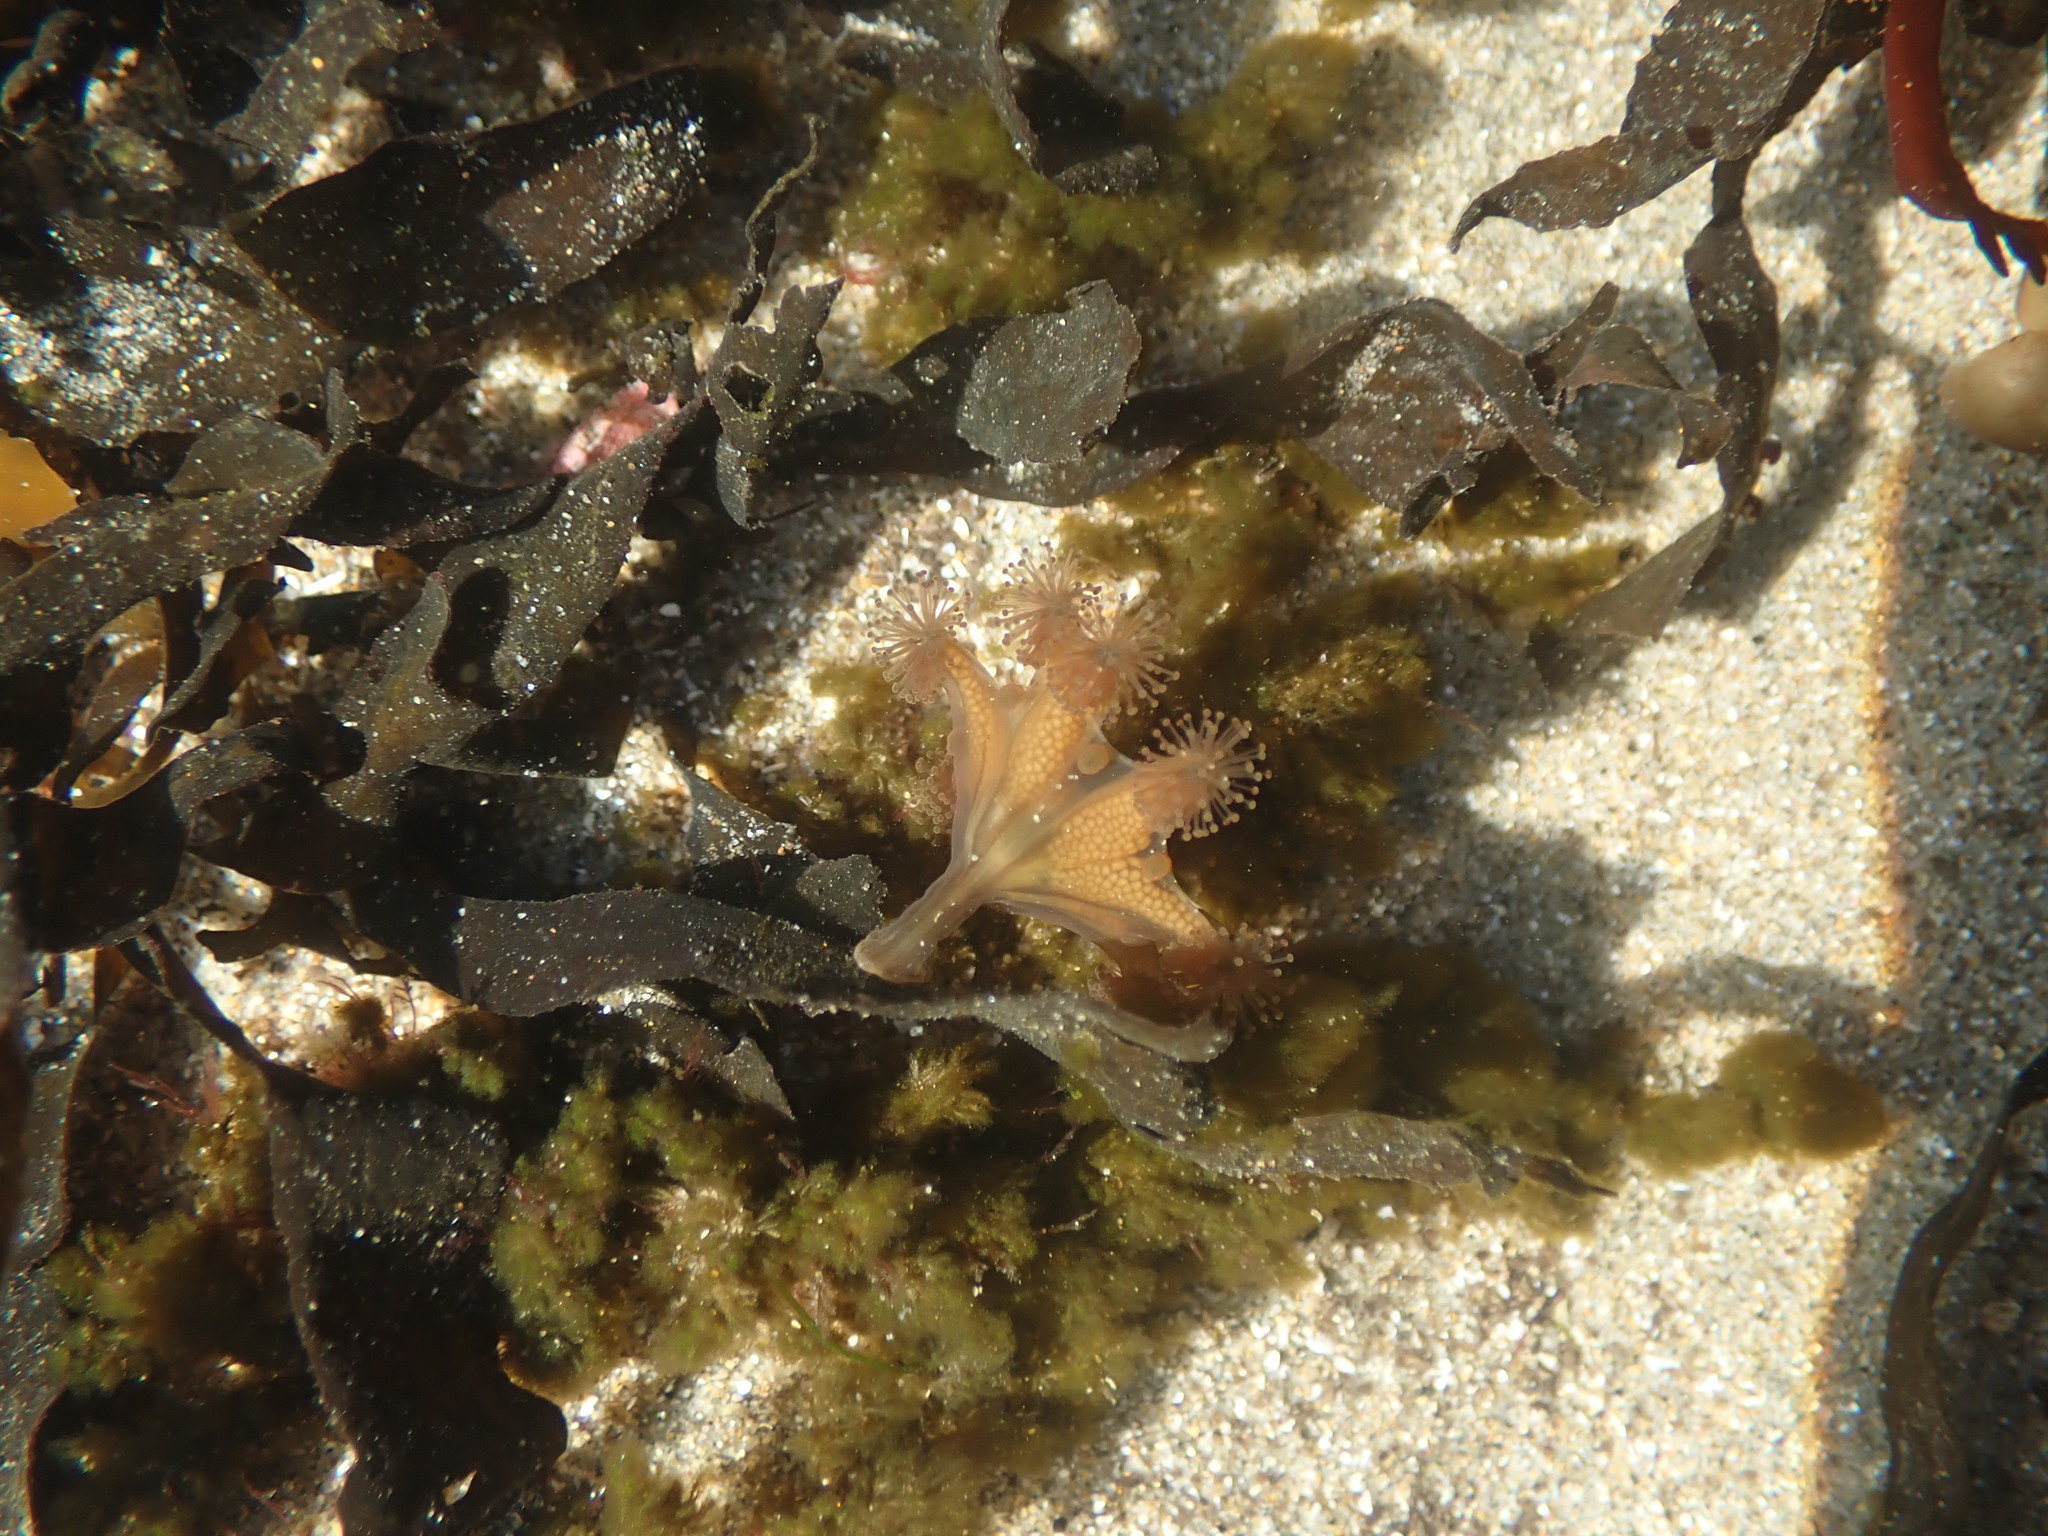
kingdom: Animalia
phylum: Cnidaria
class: Staurozoa
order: Stauromedusae
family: Haliclystidae
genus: Haliclystus
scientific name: Haliclystus sanjuanensis
